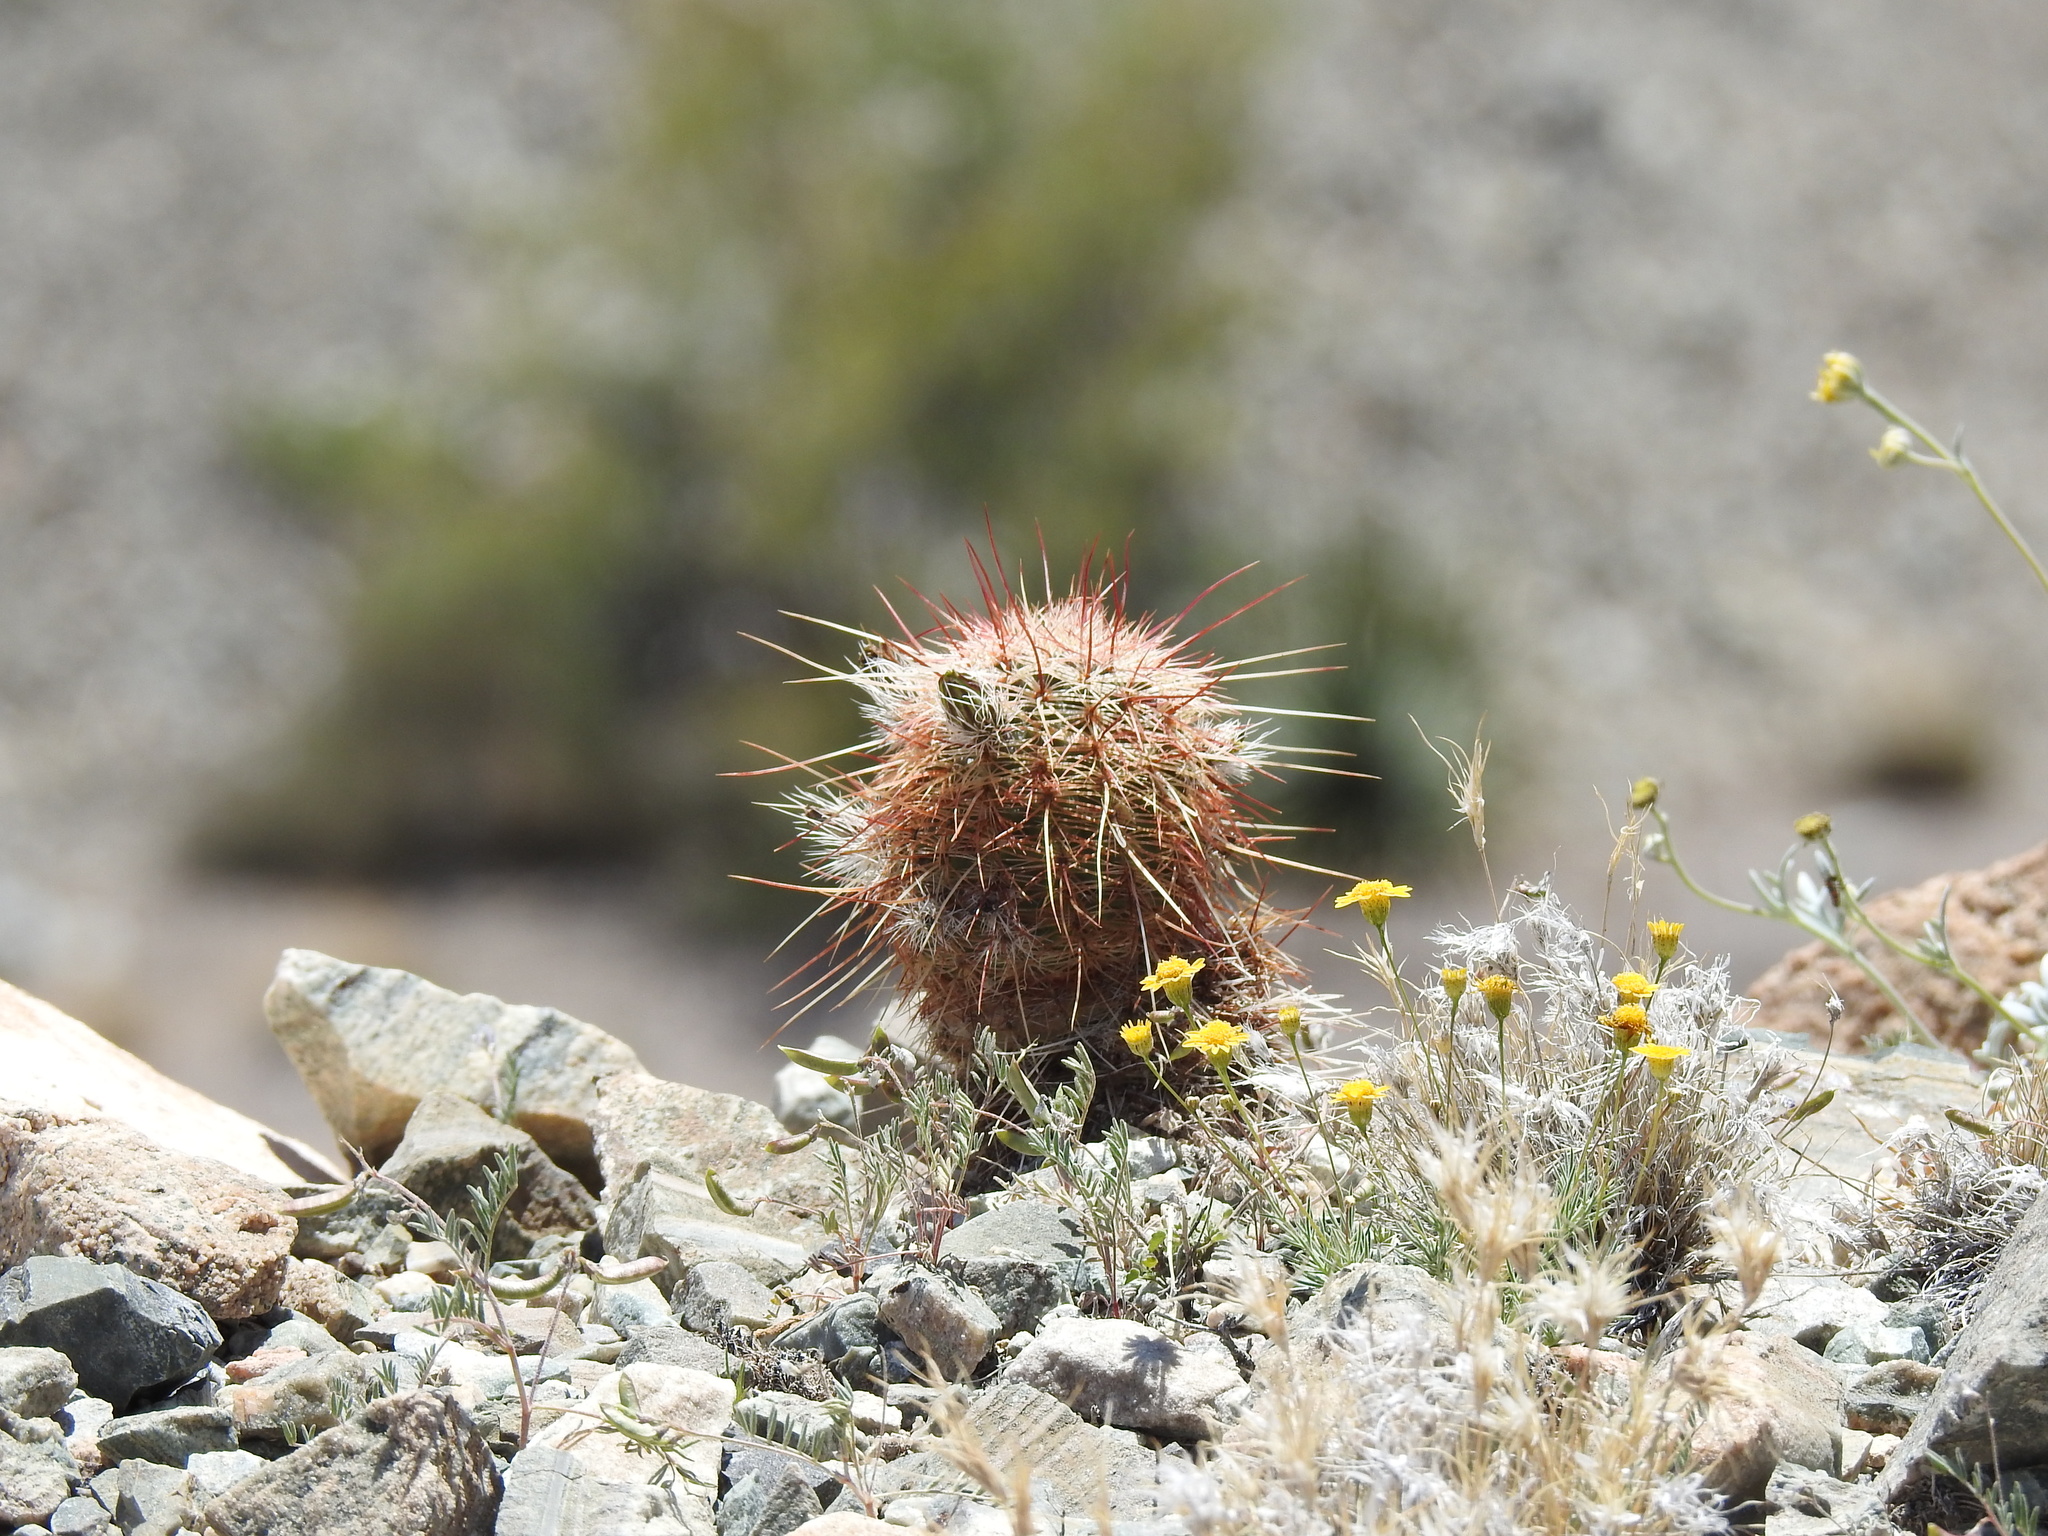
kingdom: Plantae
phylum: Tracheophyta
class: Magnoliopsida
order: Caryophyllales
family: Cactaceae
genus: Echinocereus
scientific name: Echinocereus viridiflorus
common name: Nylon hedgehog cactus
